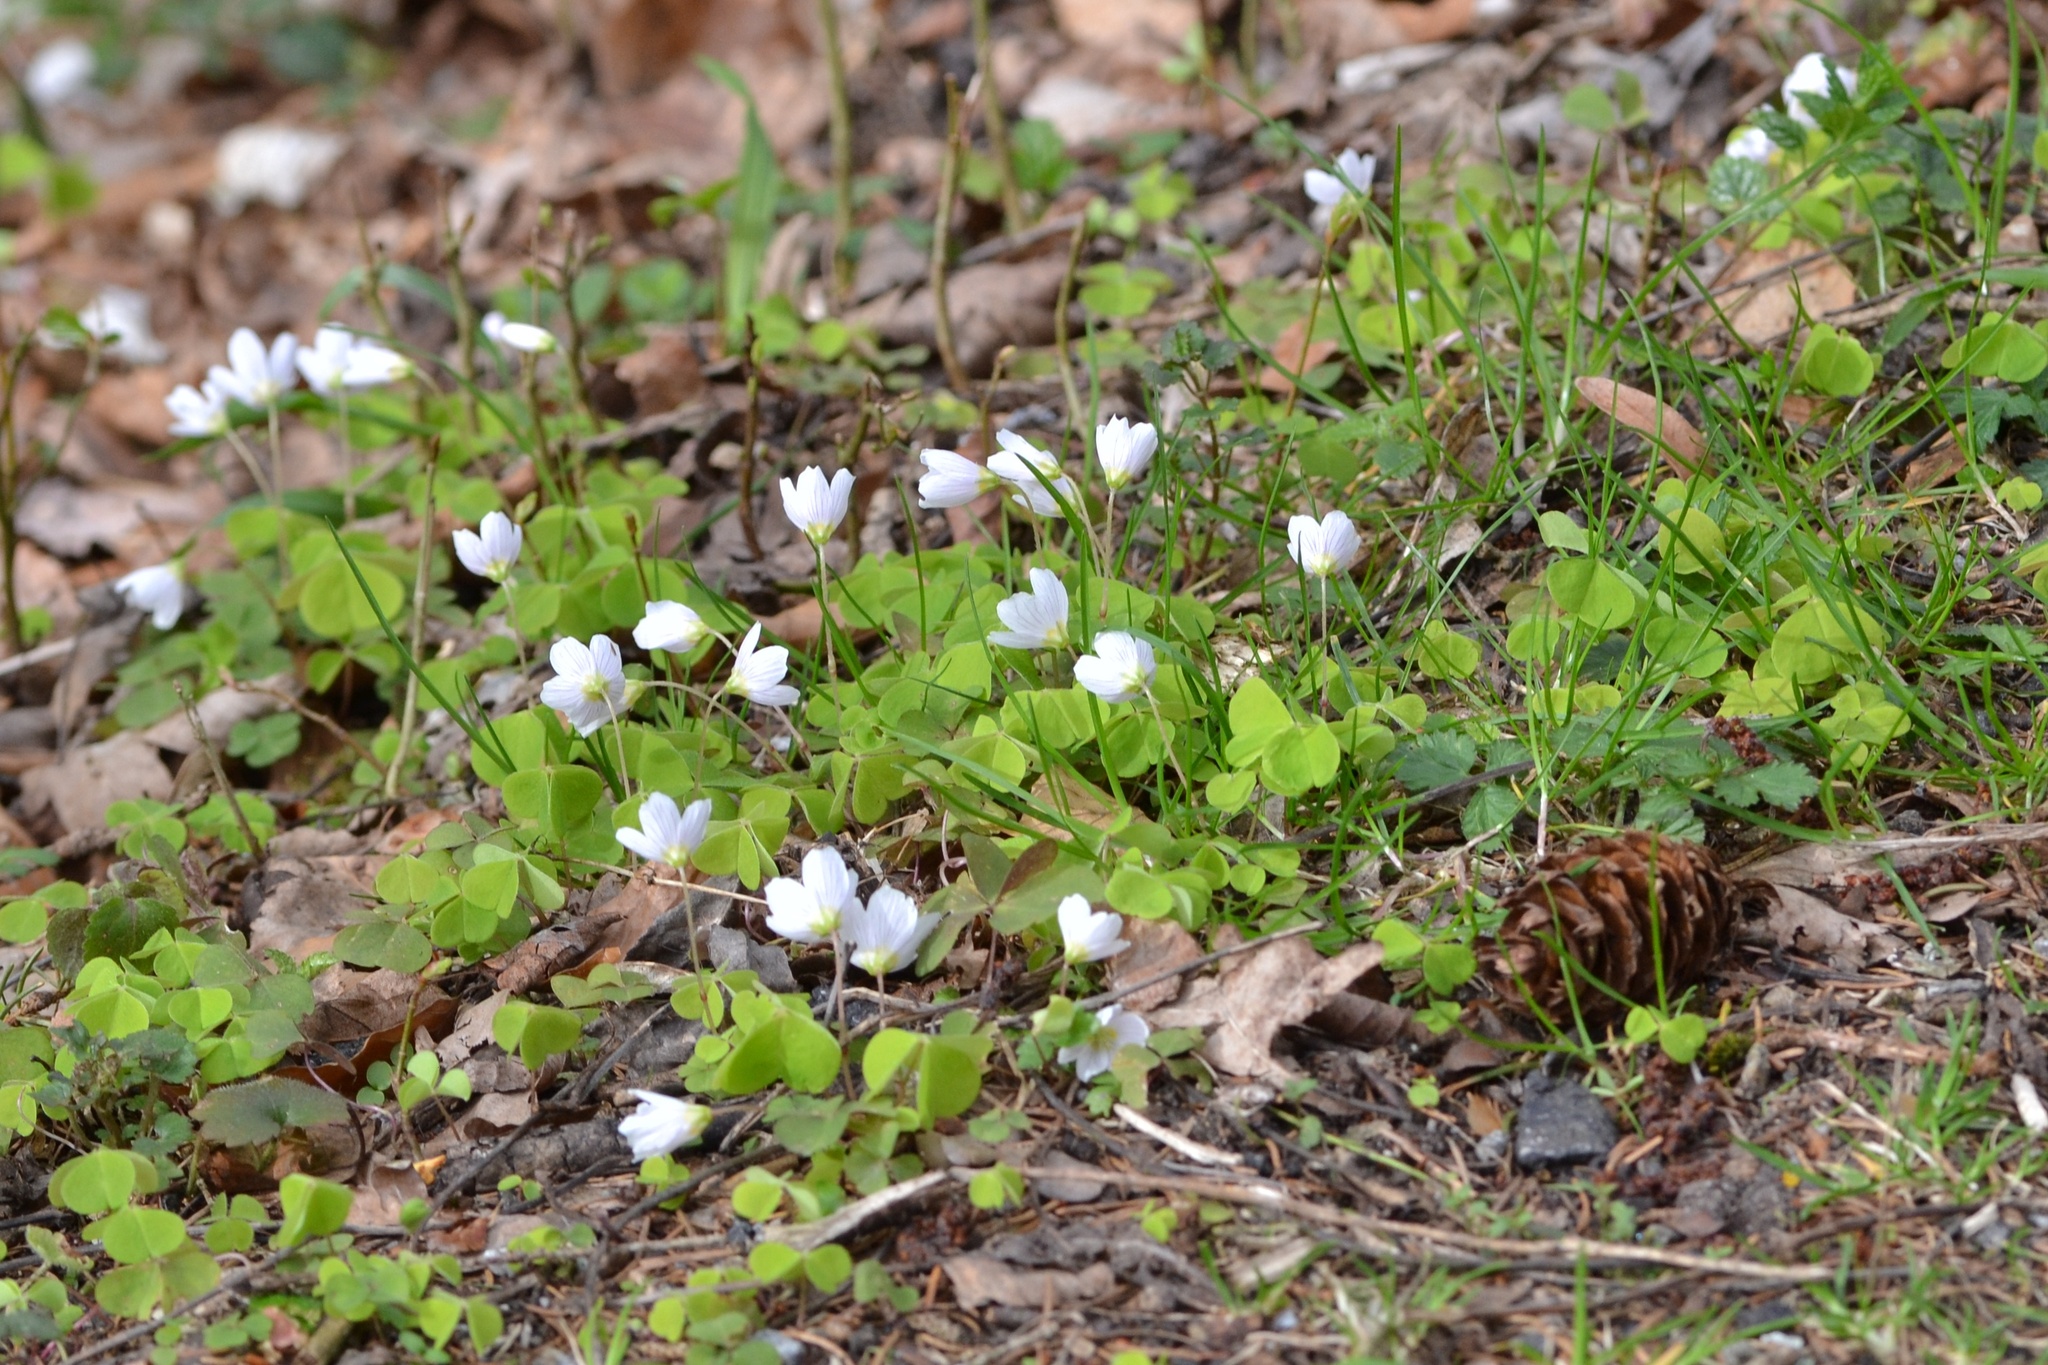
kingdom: Plantae
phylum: Tracheophyta
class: Magnoliopsida
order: Oxalidales
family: Oxalidaceae
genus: Oxalis
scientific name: Oxalis acetosella
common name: Wood-sorrel
